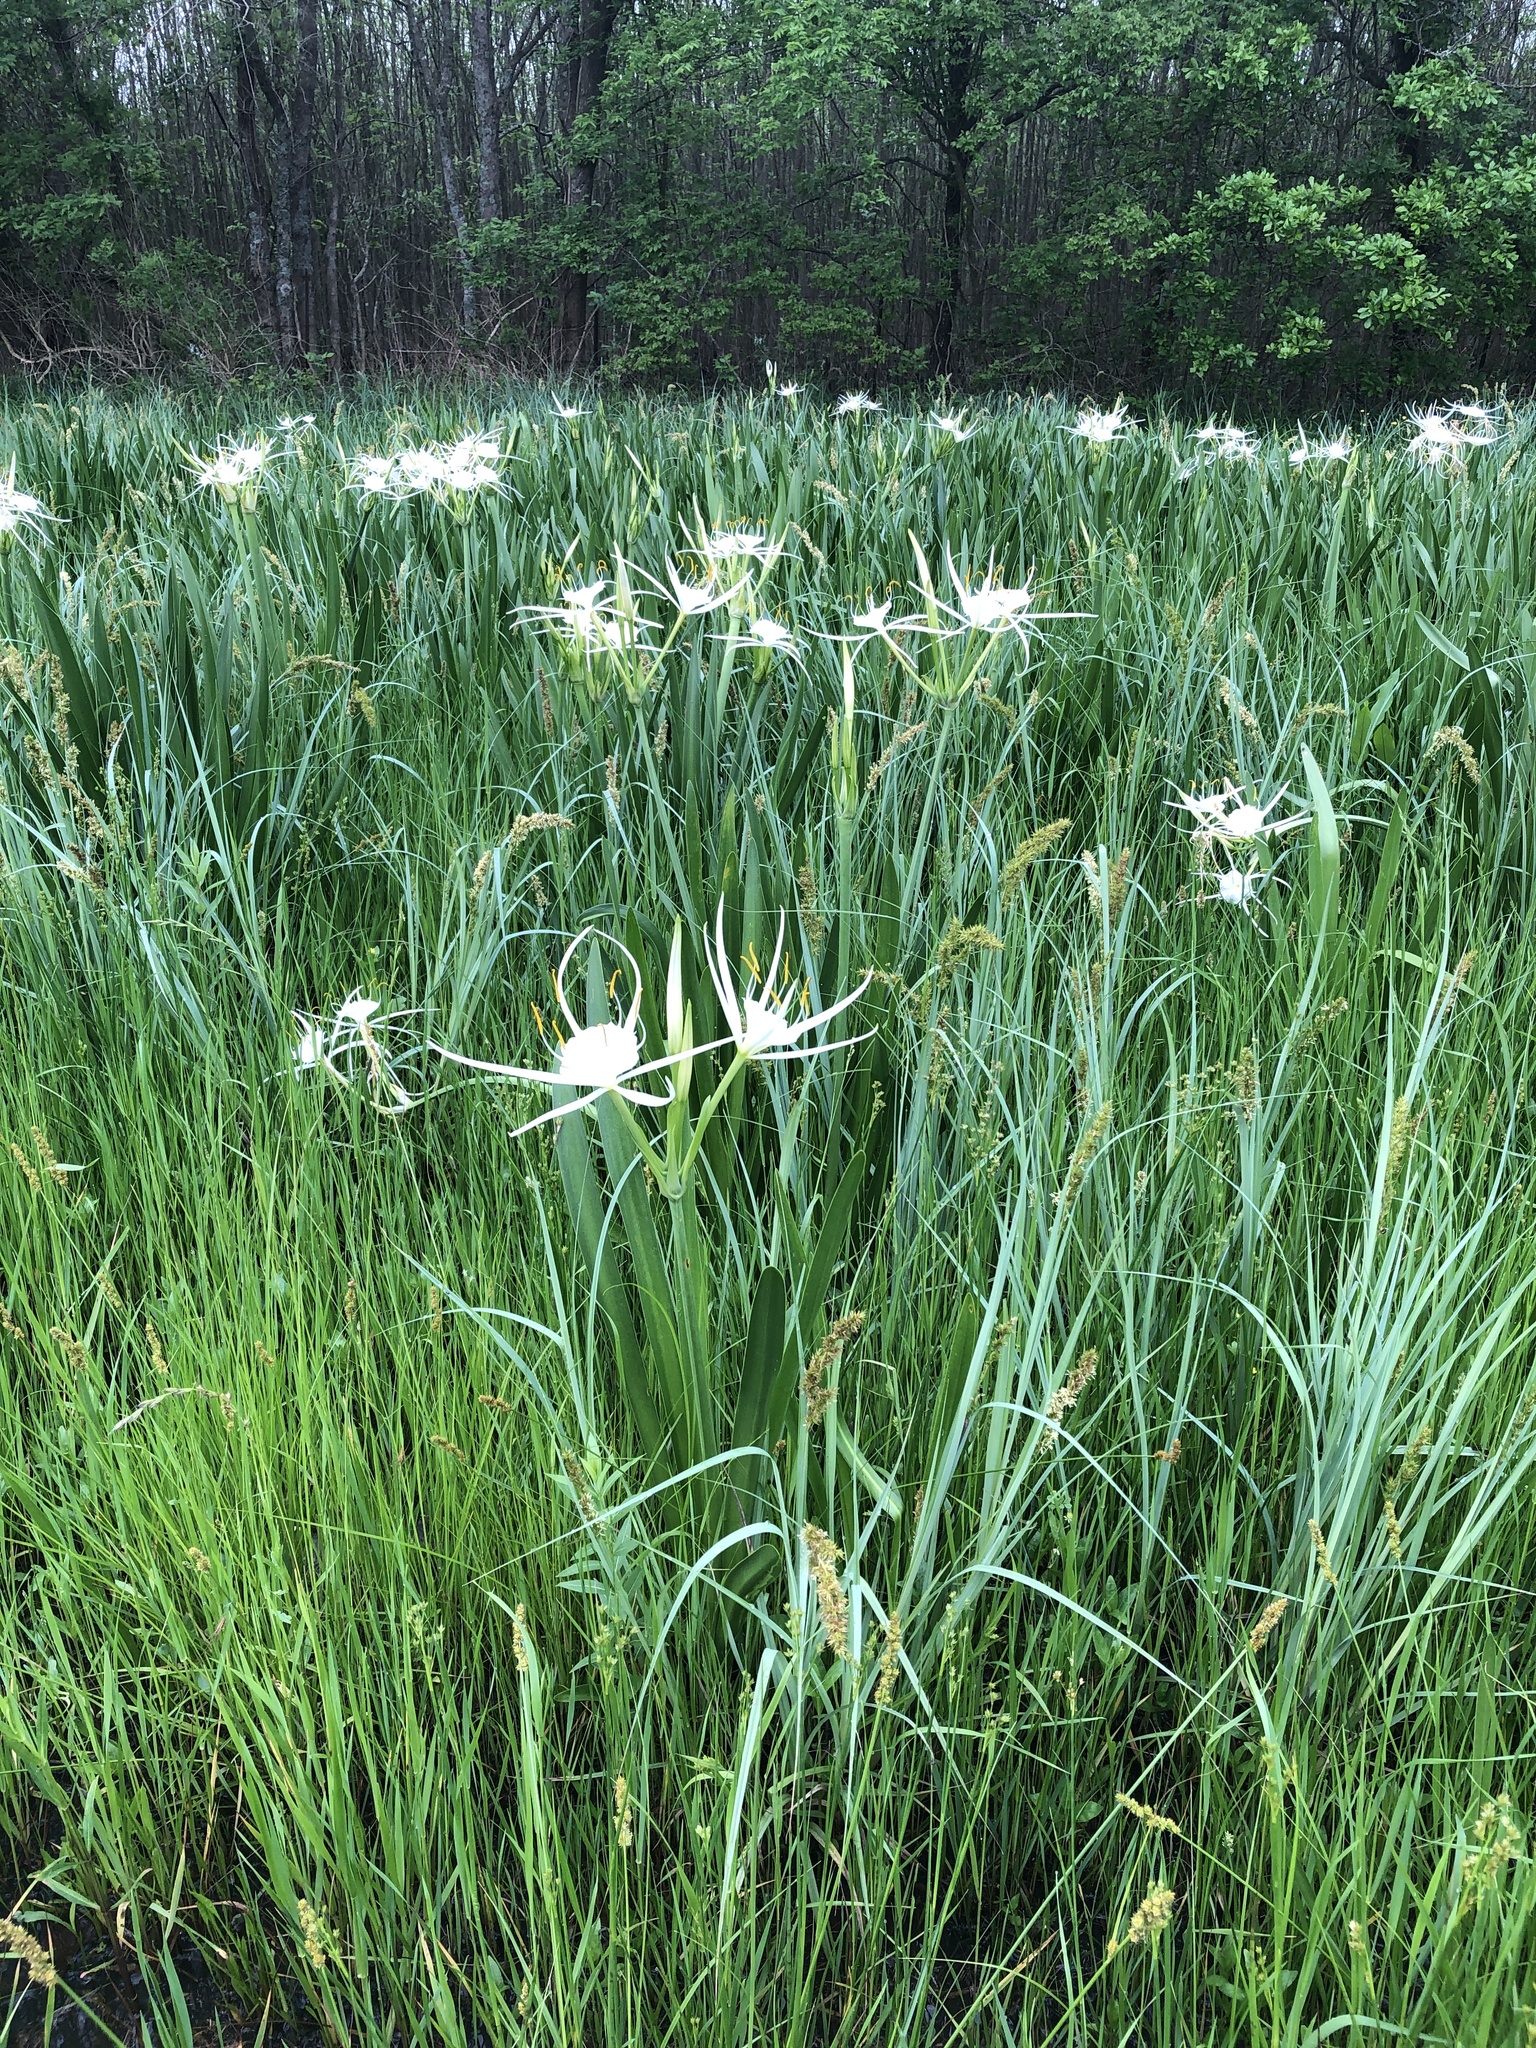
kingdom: Plantae
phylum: Tracheophyta
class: Liliopsida
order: Asparagales
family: Amaryllidaceae
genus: Hymenocallis
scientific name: Hymenocallis liriosme
